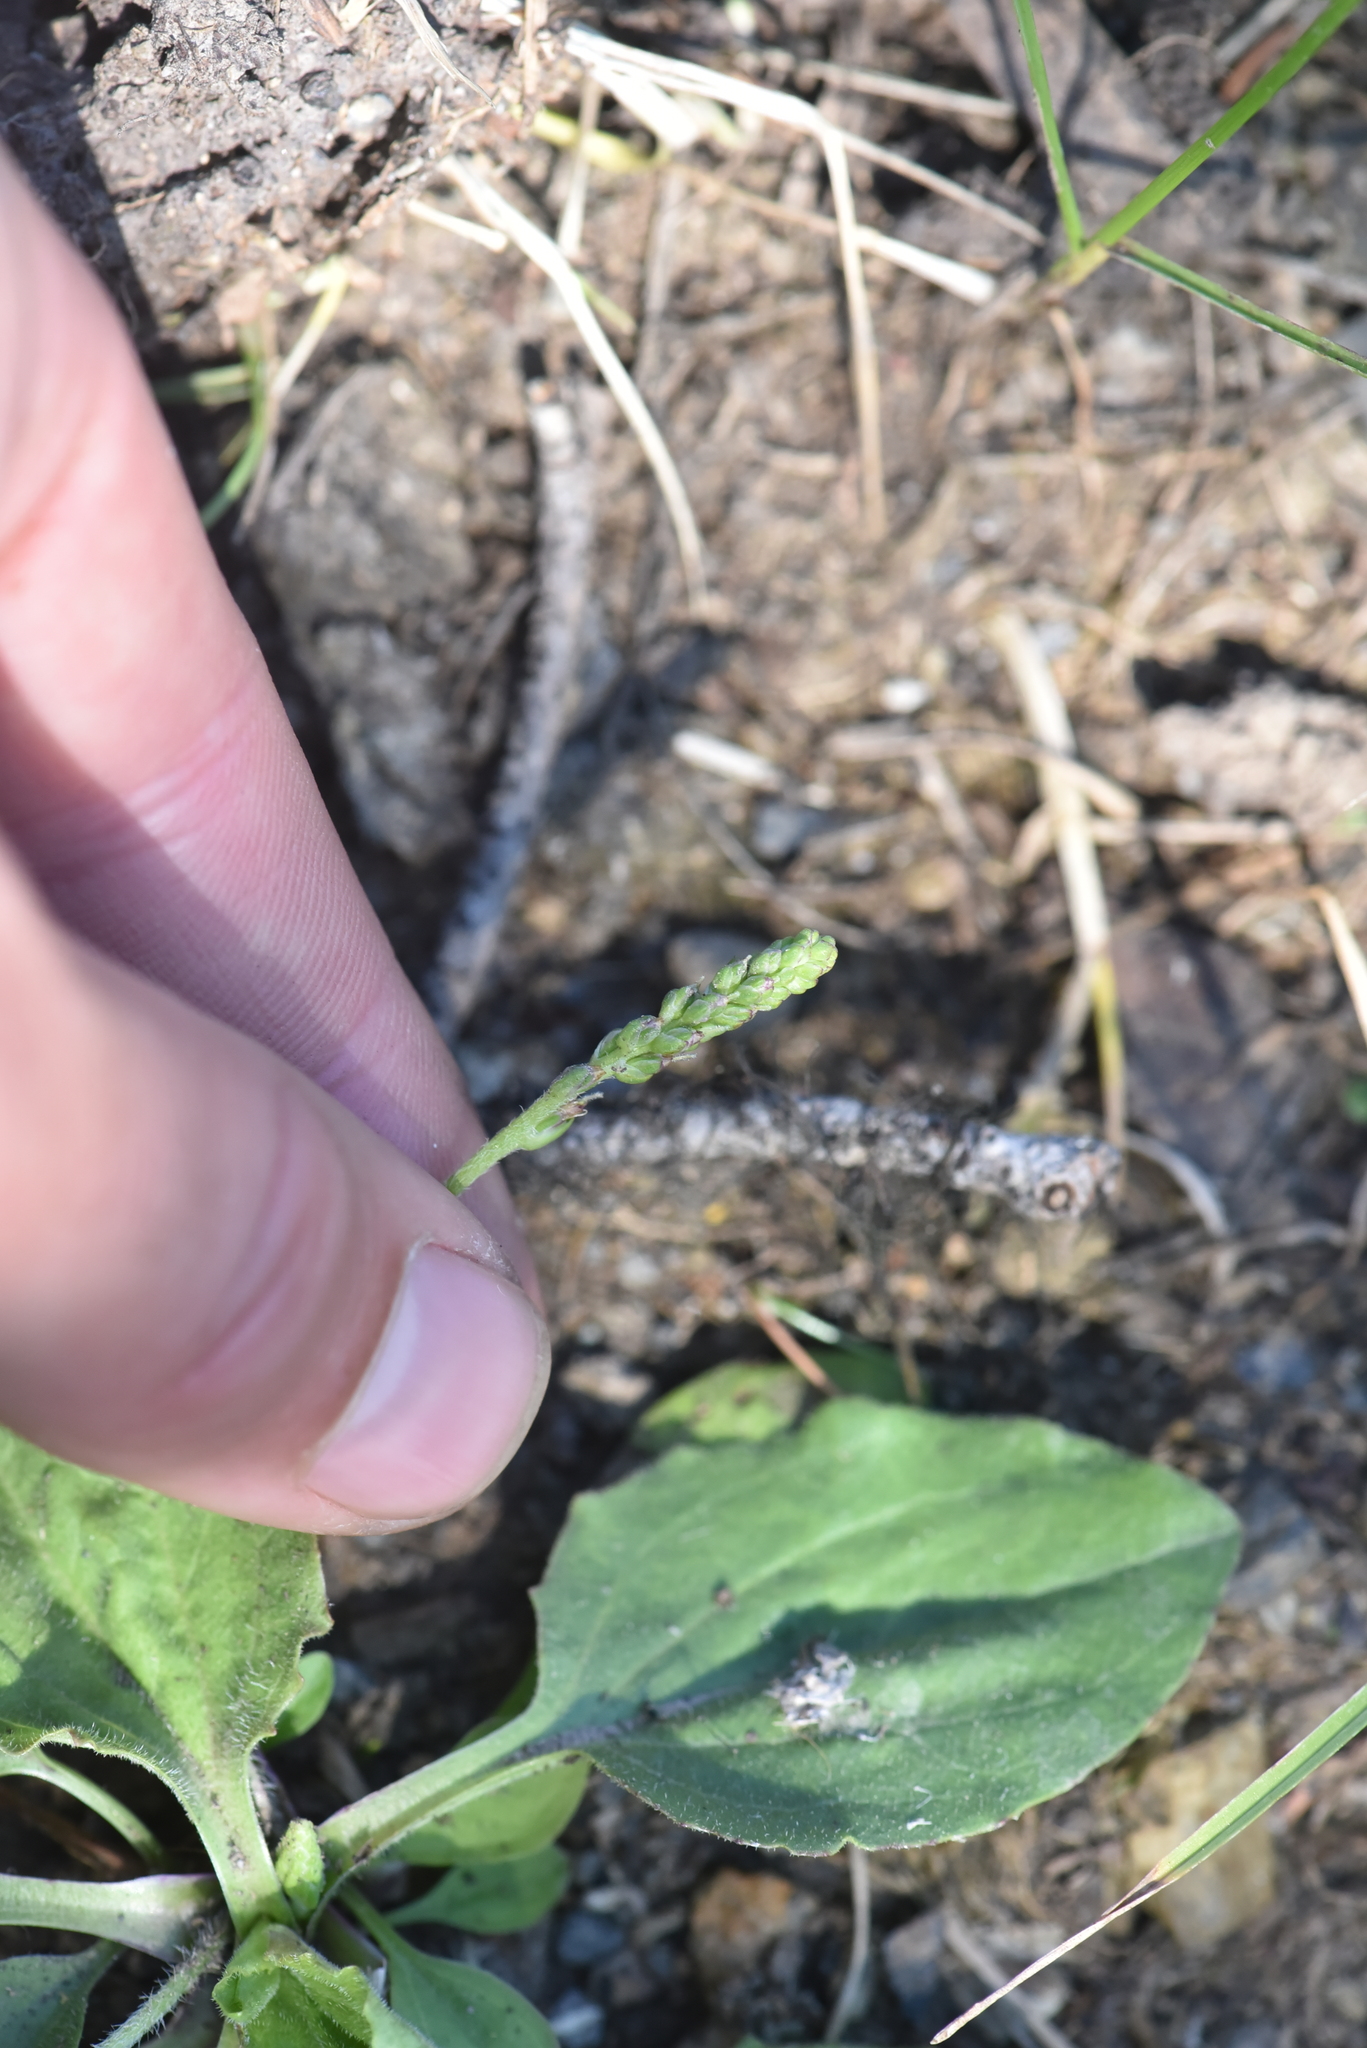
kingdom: Plantae
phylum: Tracheophyta
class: Magnoliopsida
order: Lamiales
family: Plantaginaceae
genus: Plantago
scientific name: Plantago major
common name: Common plantain
